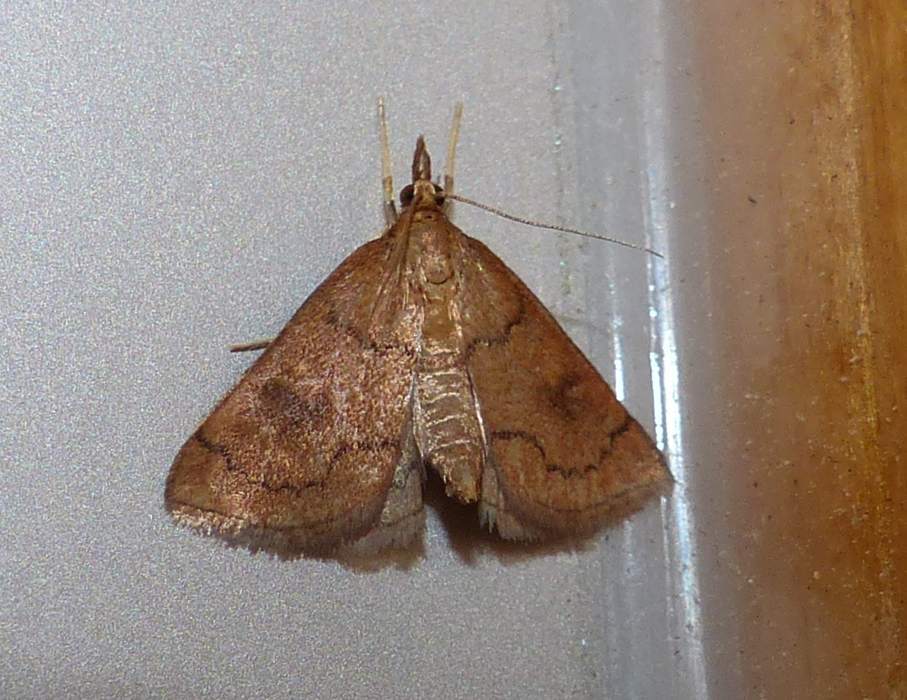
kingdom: Animalia
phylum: Arthropoda
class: Insecta
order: Lepidoptera
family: Crambidae
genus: Fumibotys
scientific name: Fumibotys fumalis
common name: Mint root borer moth
